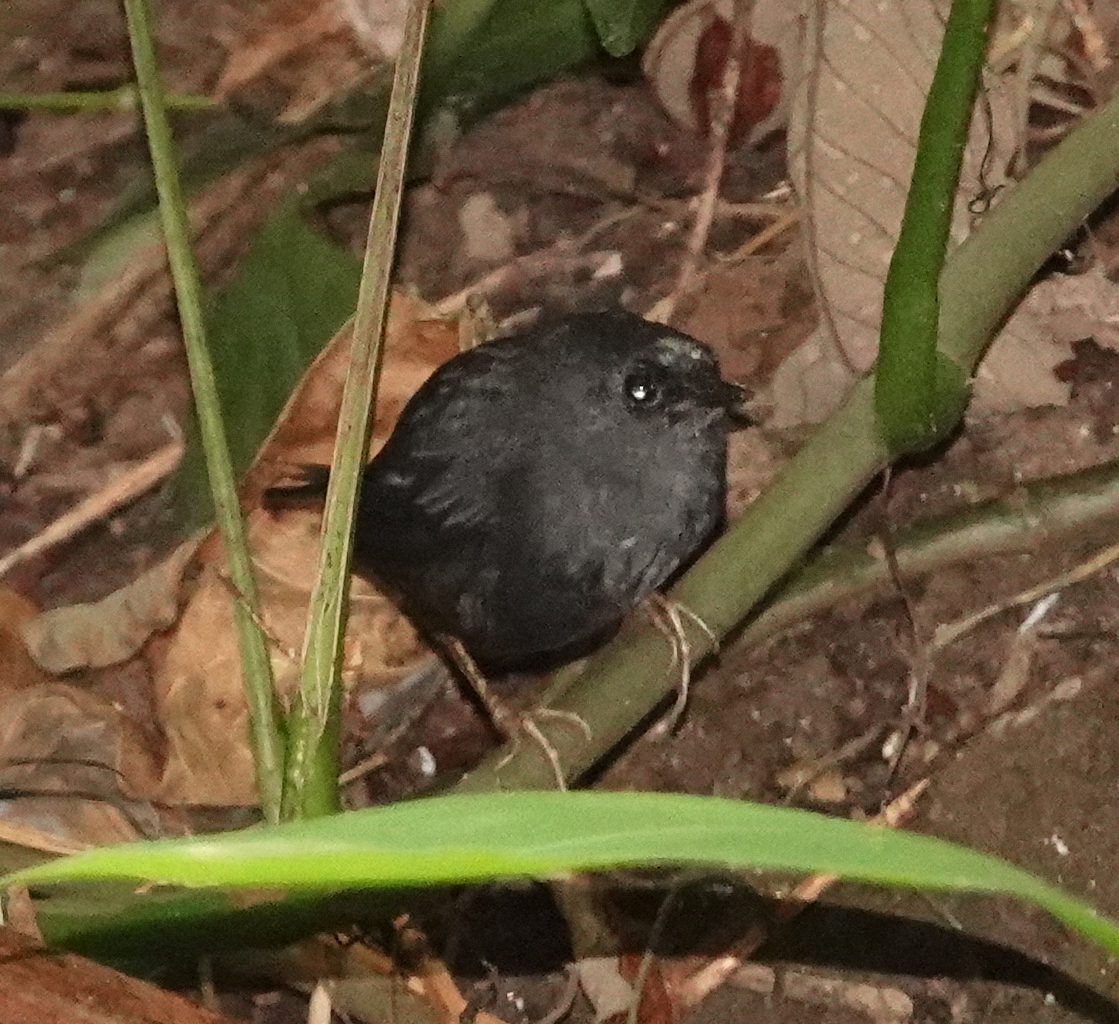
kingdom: Animalia
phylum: Chordata
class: Aves
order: Passeriformes
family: Rhinocryptidae
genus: Scytalopus
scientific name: Scytalopus sanctaemartae
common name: Santa marta tapaculo
